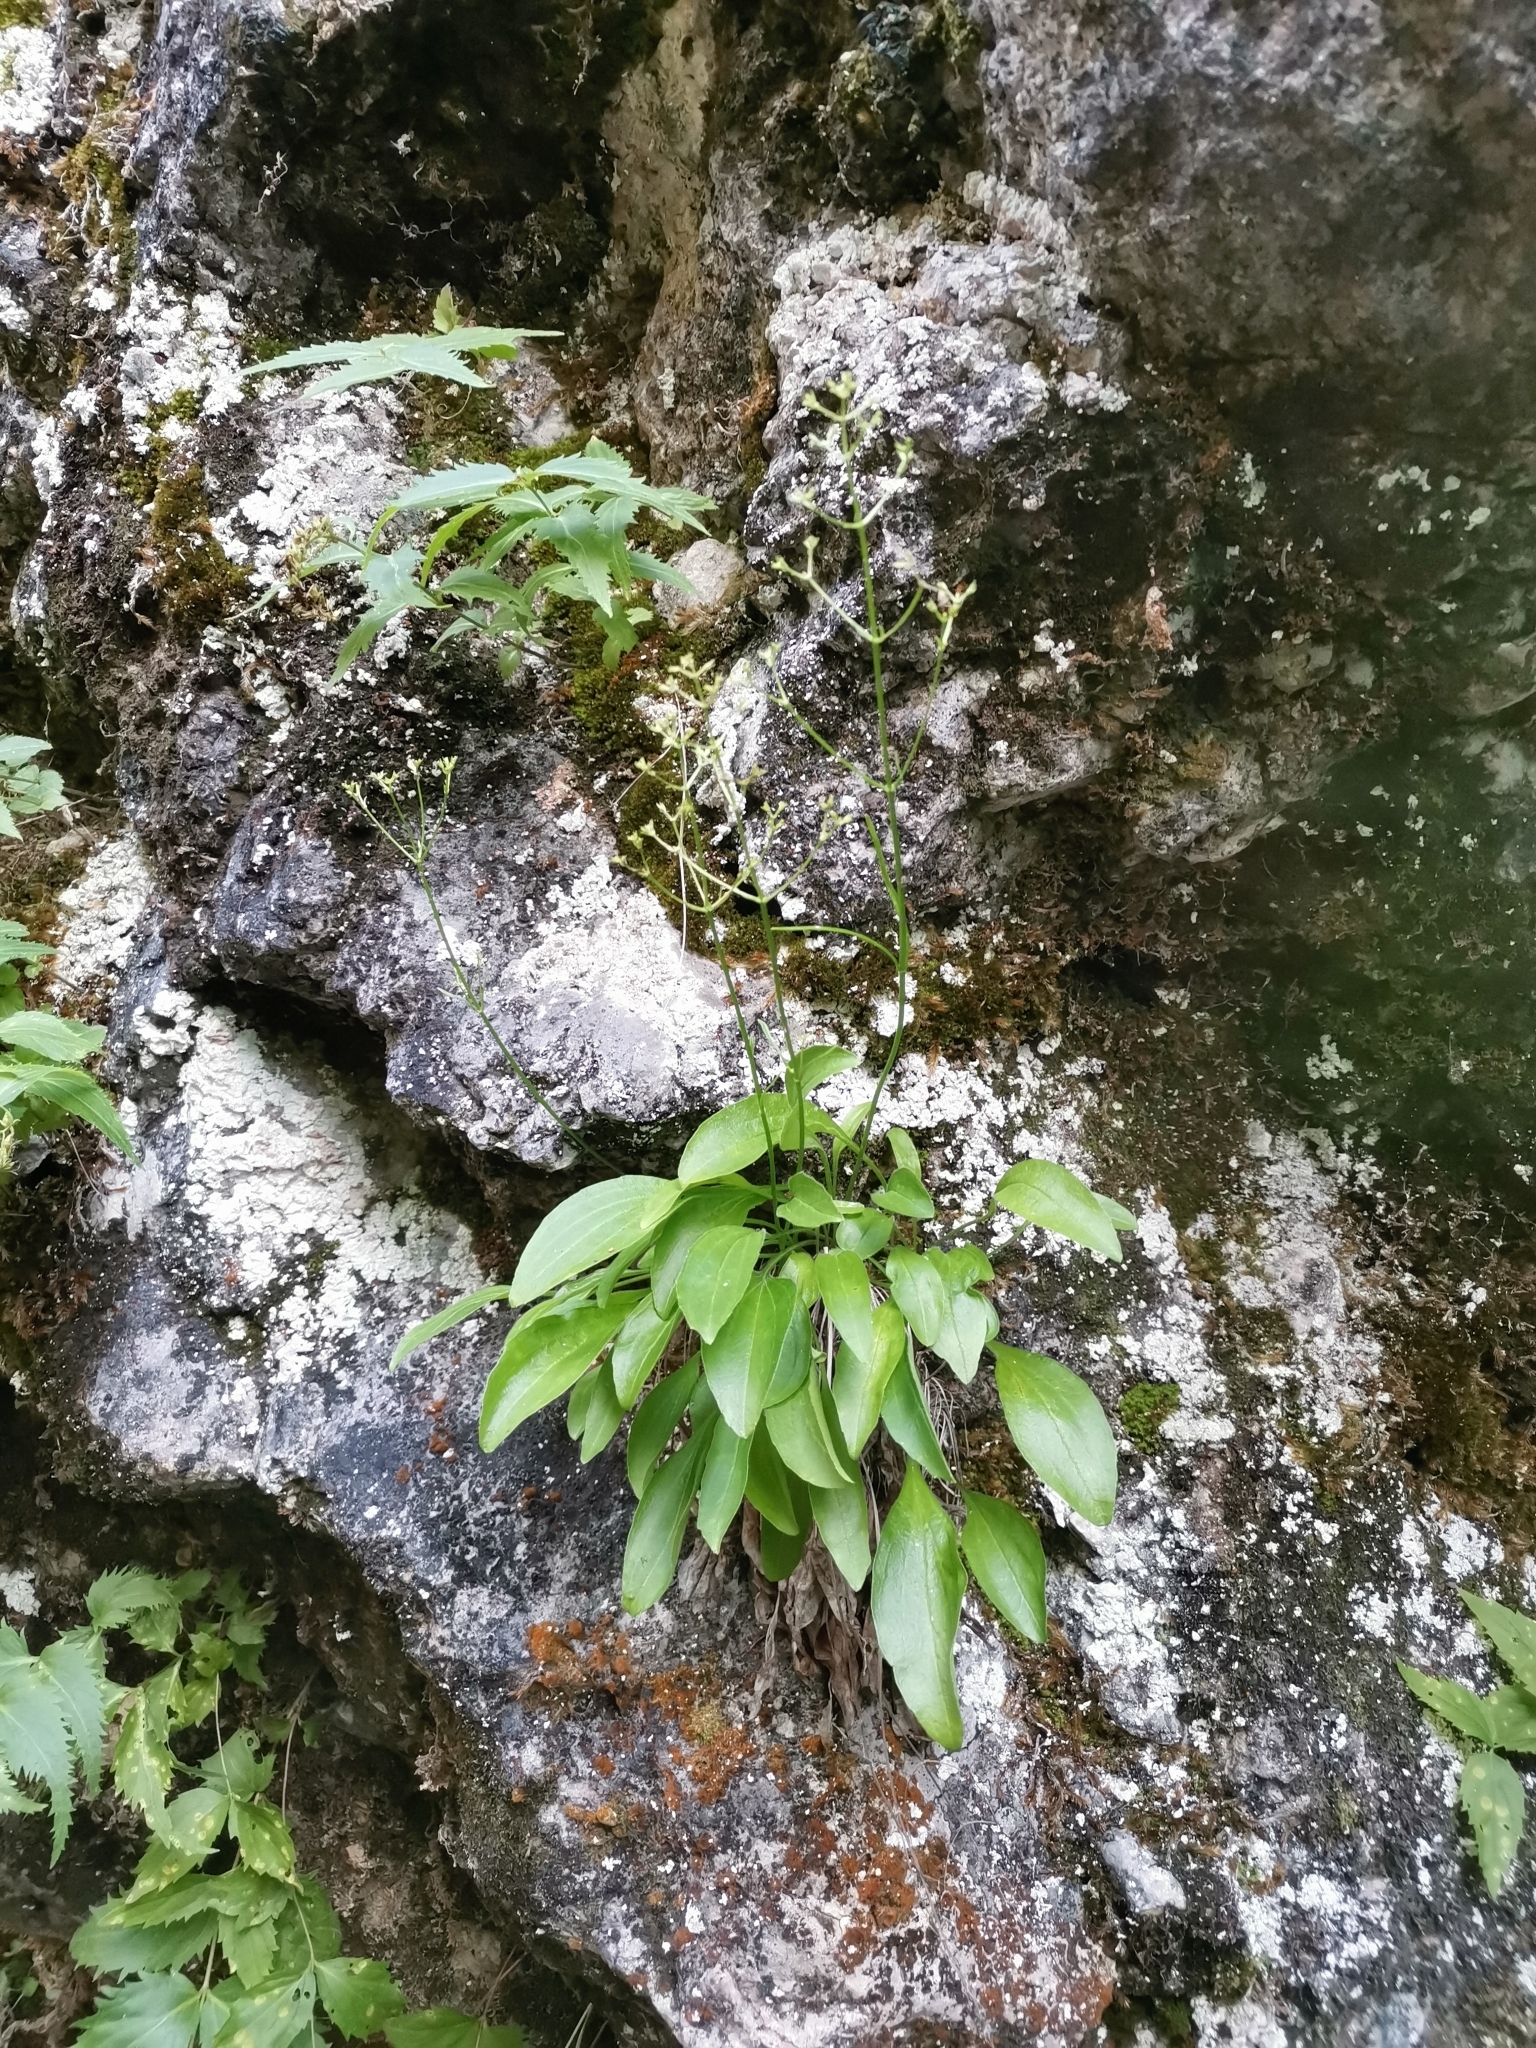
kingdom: Plantae
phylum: Tracheophyta
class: Magnoliopsida
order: Dipsacales
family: Caprifoliaceae
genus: Valeriana
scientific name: Valeriana saxatilis
